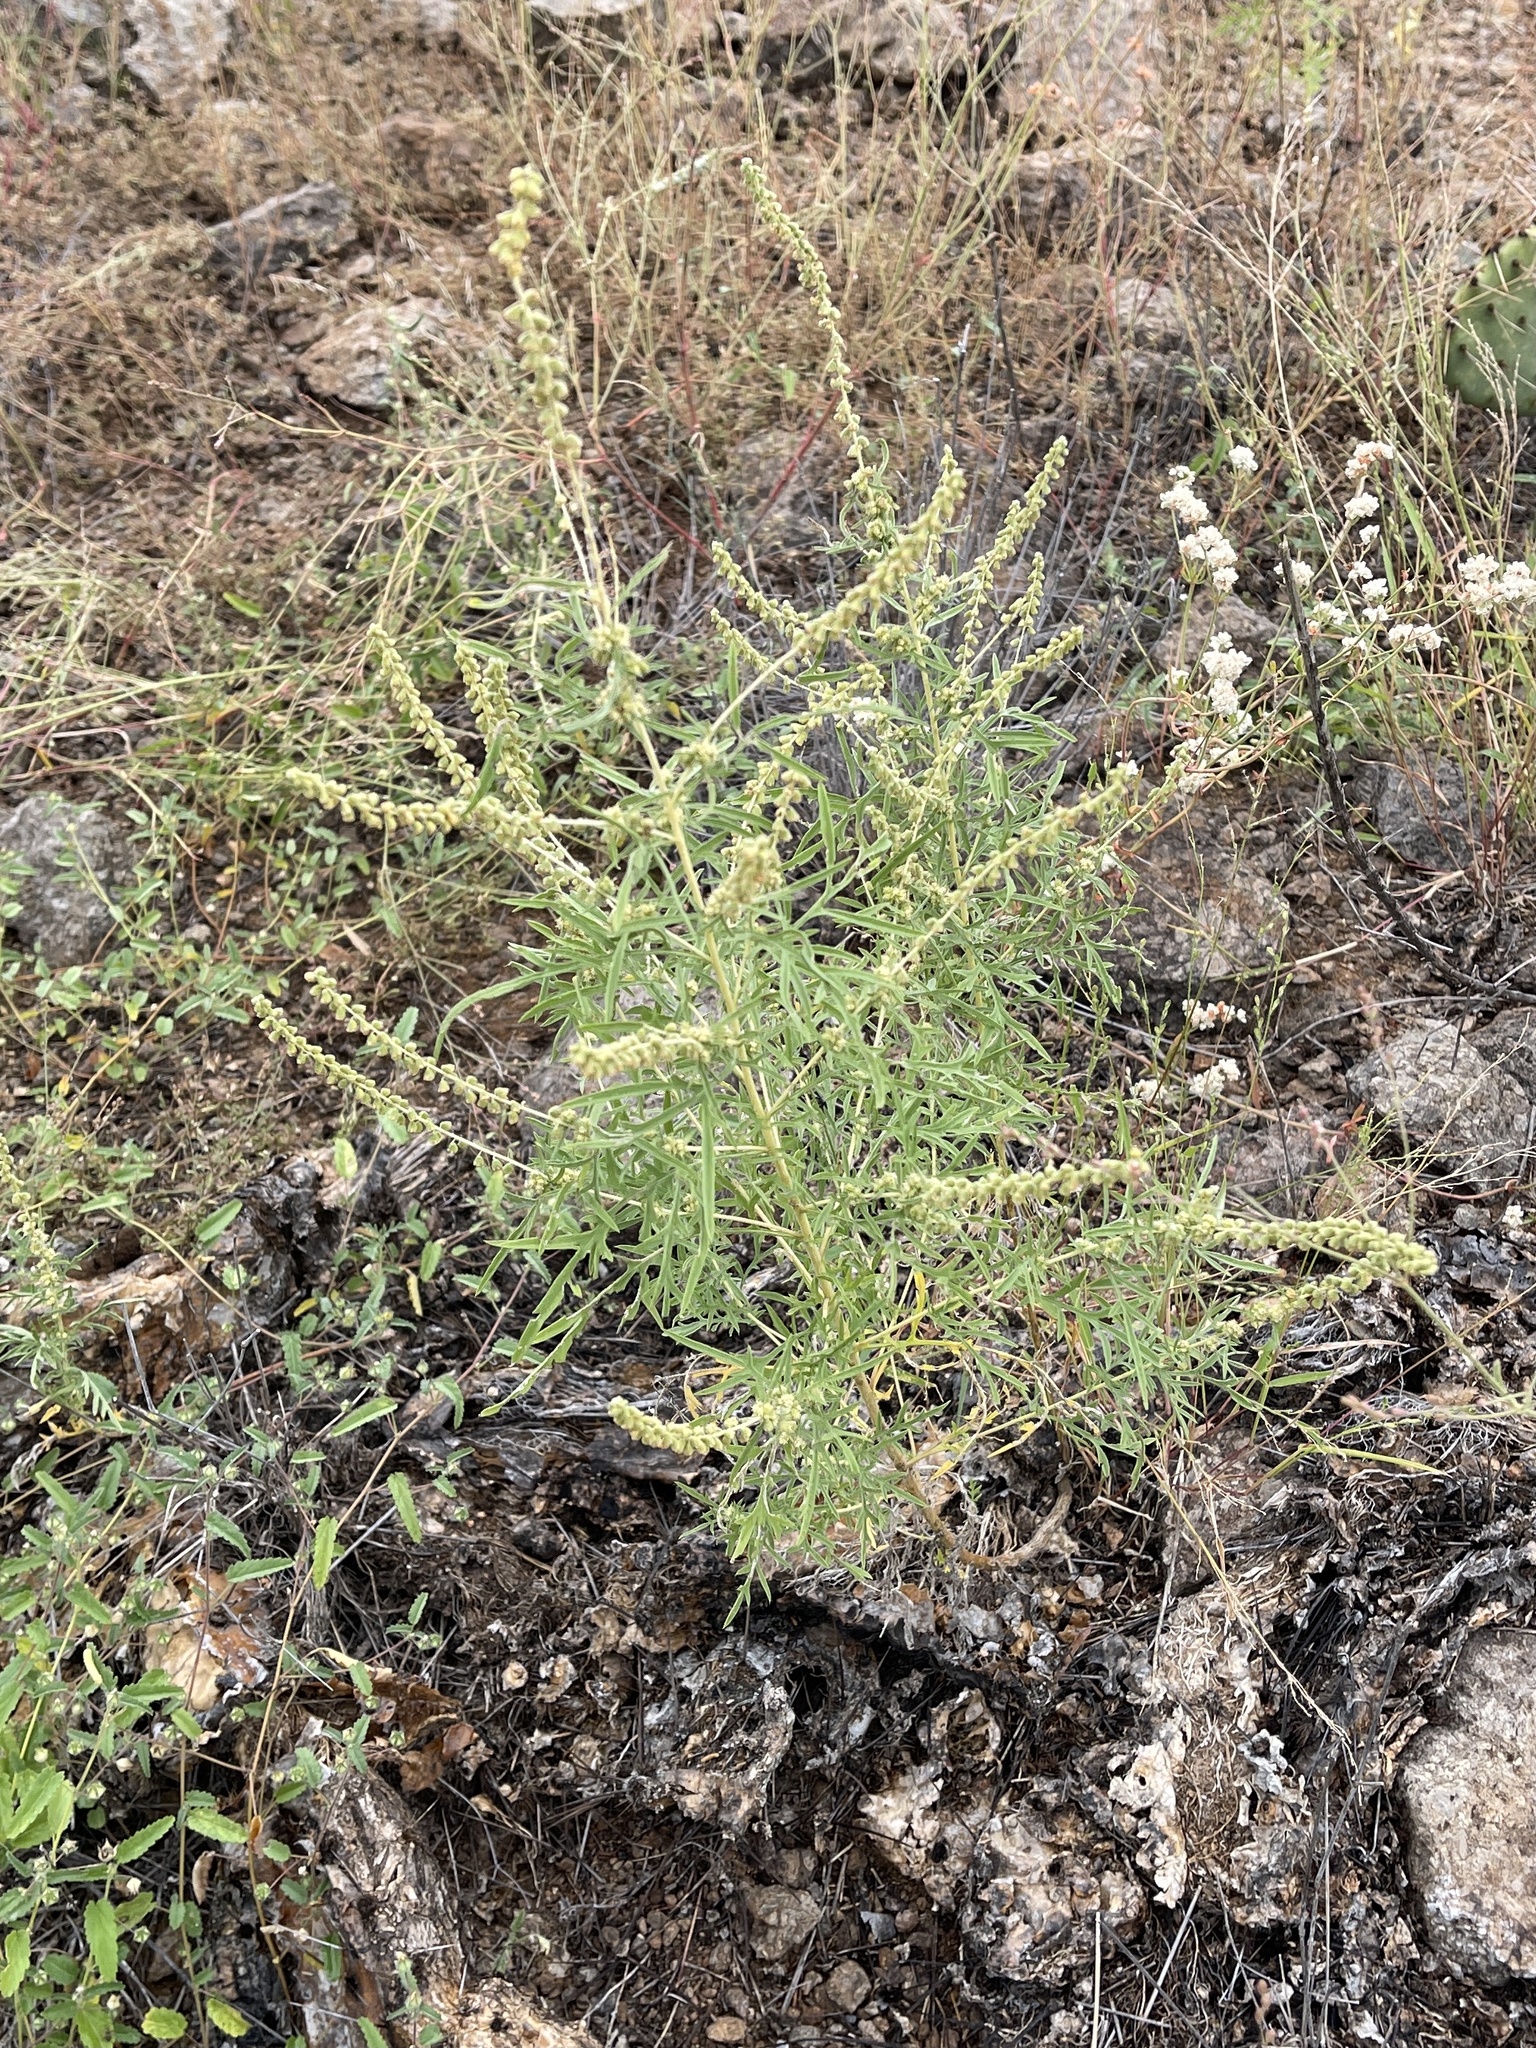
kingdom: Plantae
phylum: Tracheophyta
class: Magnoliopsida
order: Asterales
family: Asteraceae
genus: Ambrosia
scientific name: Ambrosia confertiflora
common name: Bur ragweed
